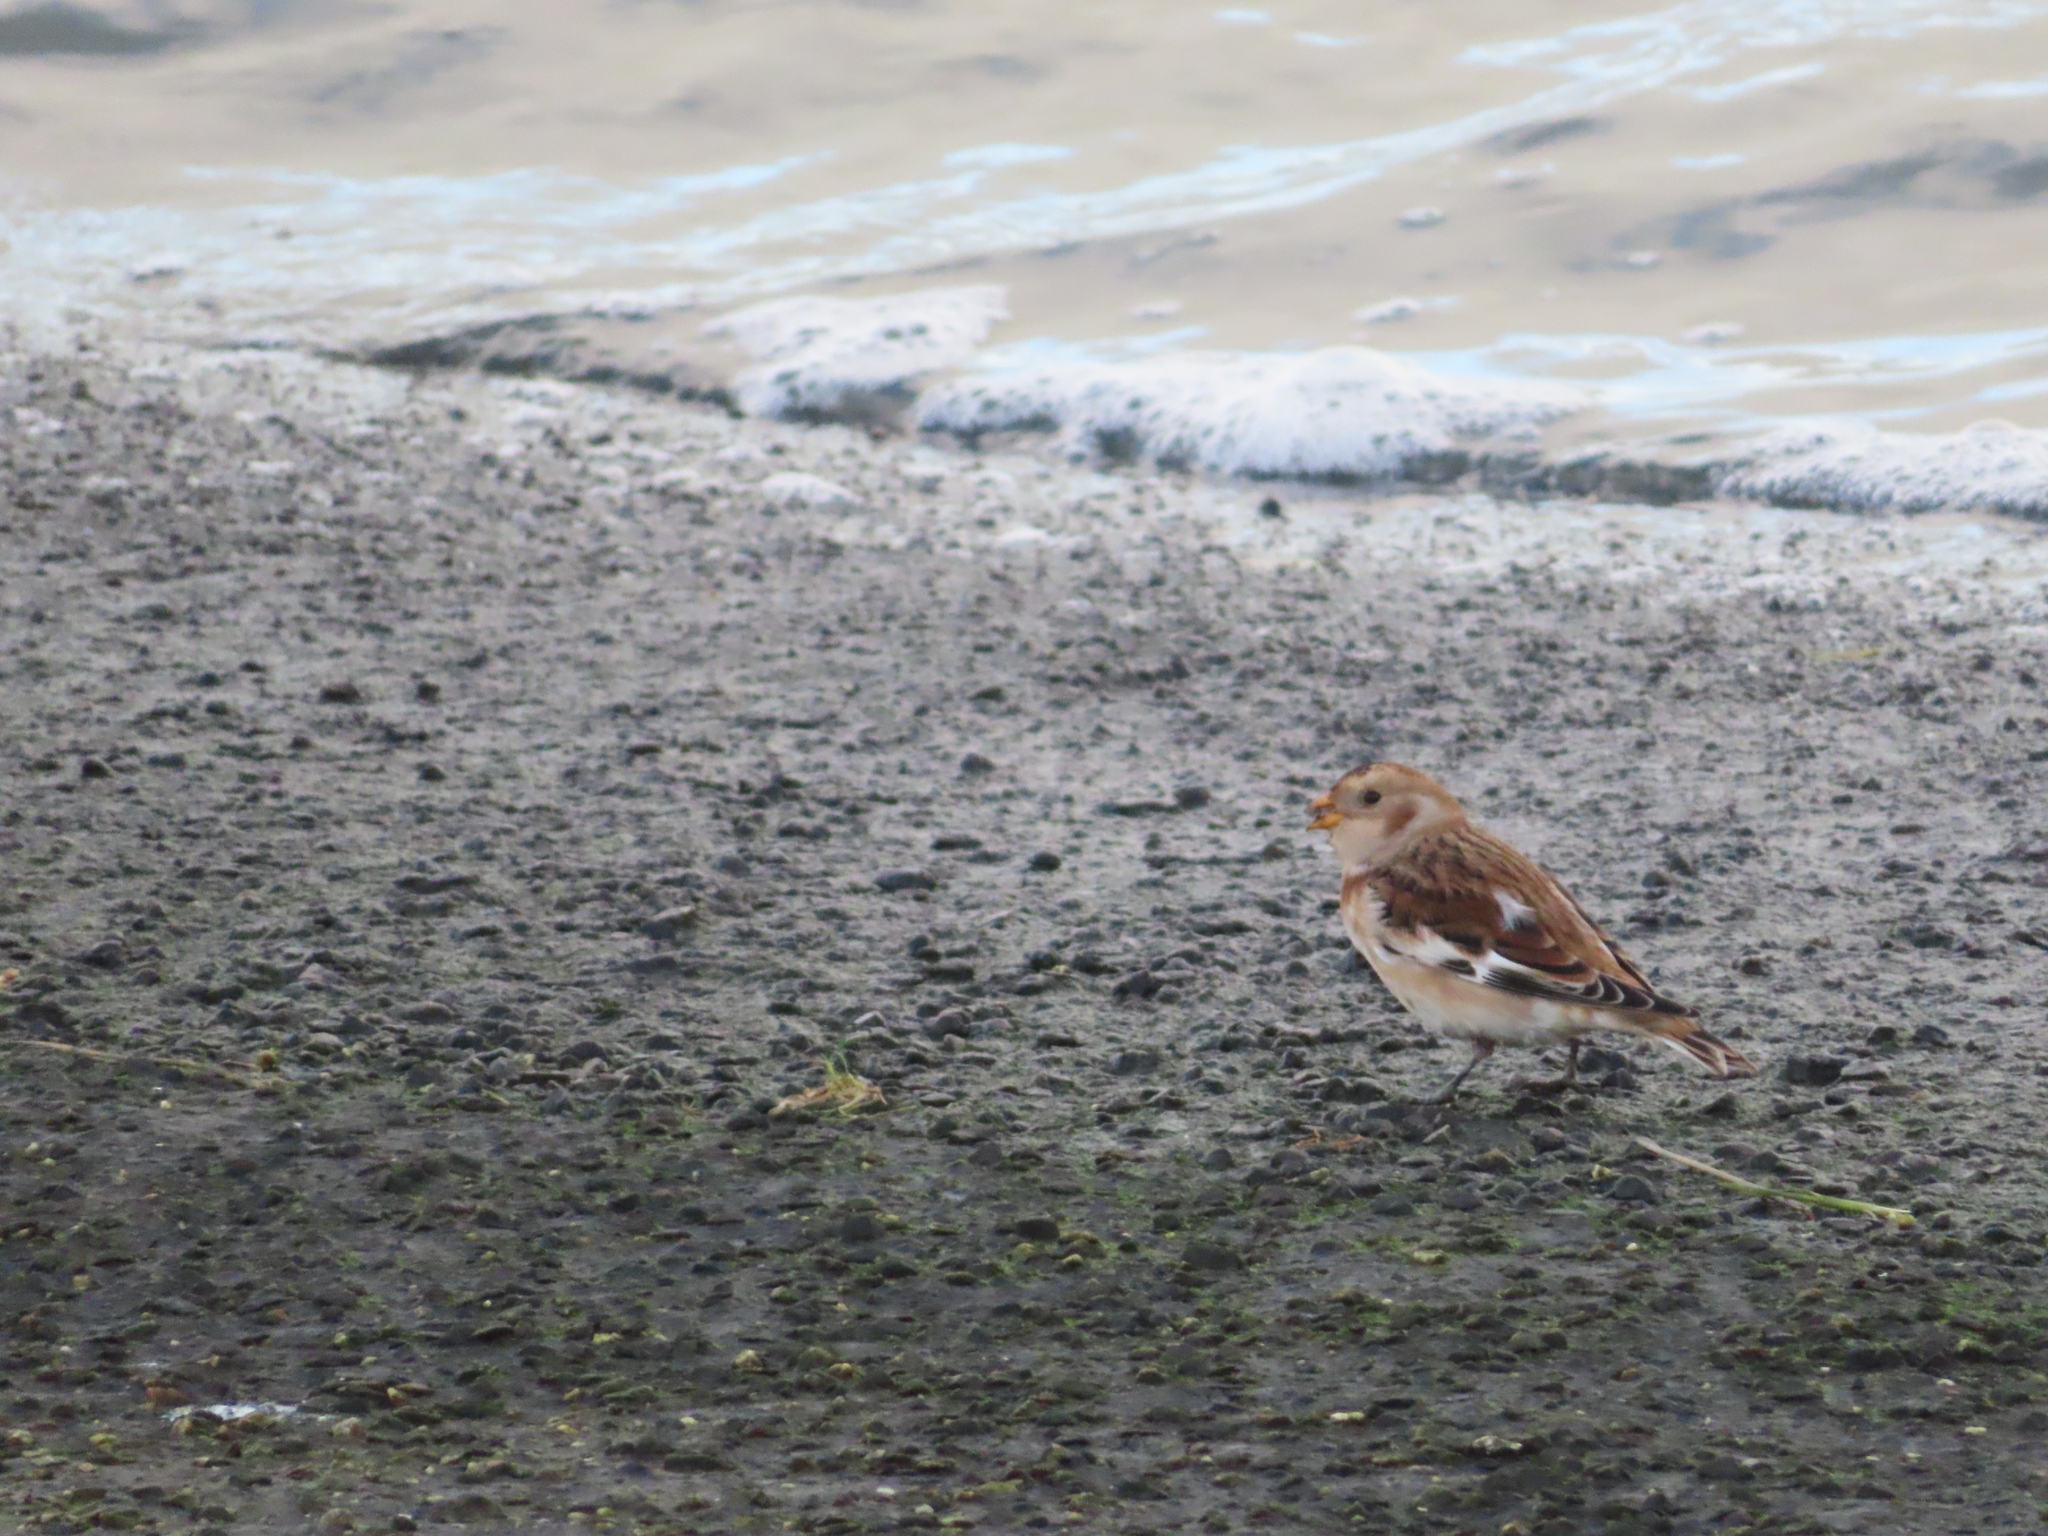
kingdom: Animalia
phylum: Chordata
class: Aves
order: Passeriformes
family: Calcariidae
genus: Plectrophenax
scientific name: Plectrophenax nivalis
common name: Snow bunting
